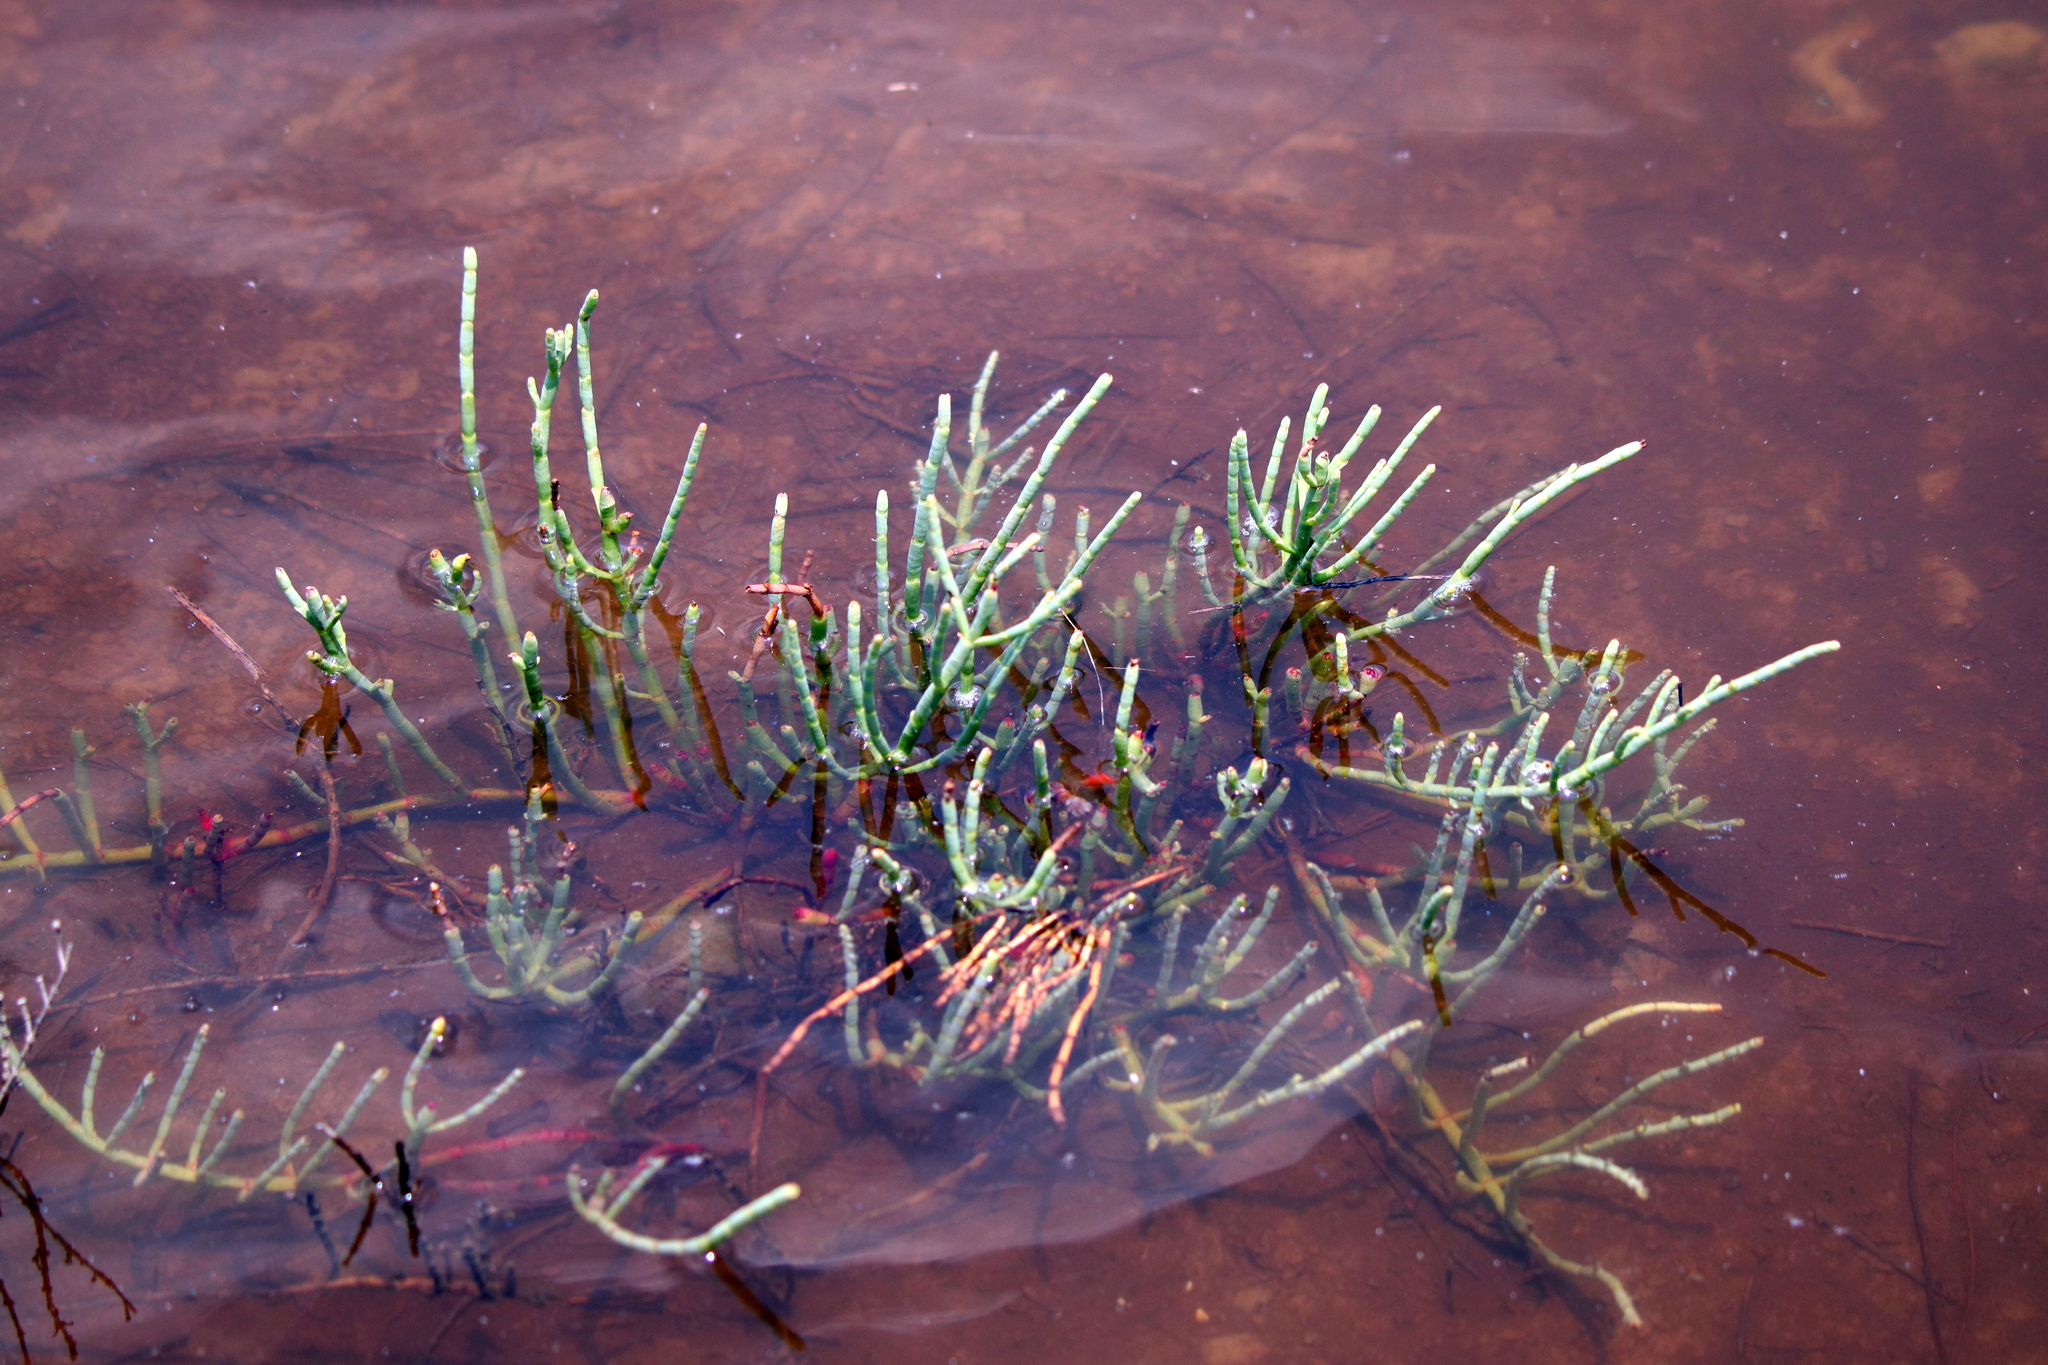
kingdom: Plantae
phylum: Tracheophyta
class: Magnoliopsida
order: Caryophyllales
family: Amaranthaceae
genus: Salicornia
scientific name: Salicornia virginica
